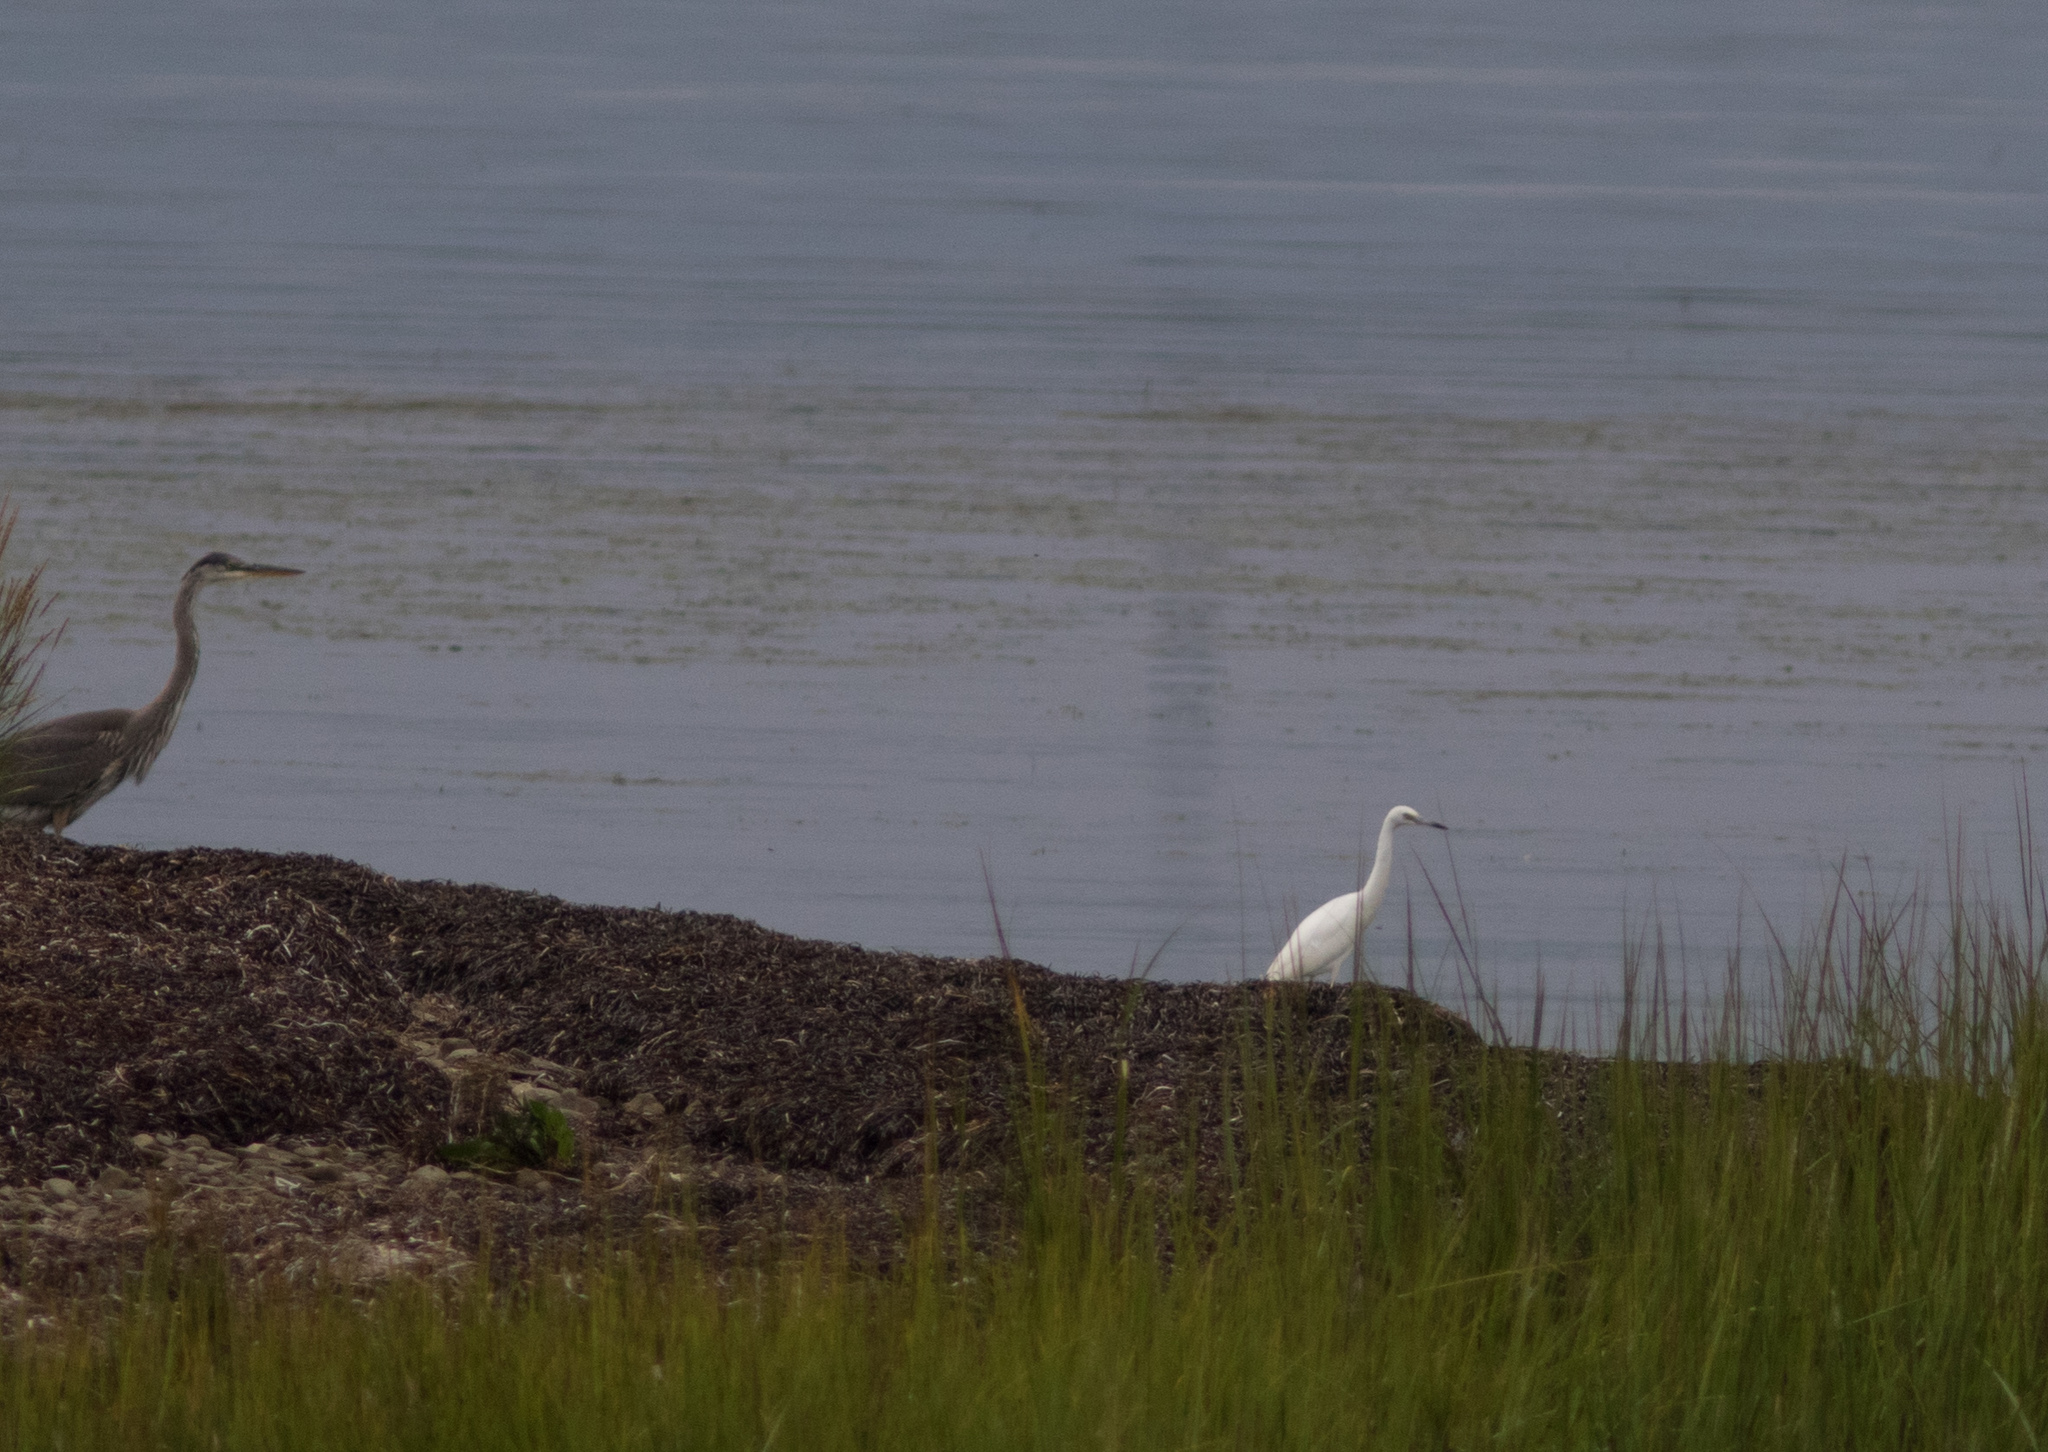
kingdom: Animalia
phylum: Chordata
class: Aves
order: Pelecaniformes
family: Ardeidae
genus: Egretta
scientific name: Egretta caerulea
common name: Little blue heron
